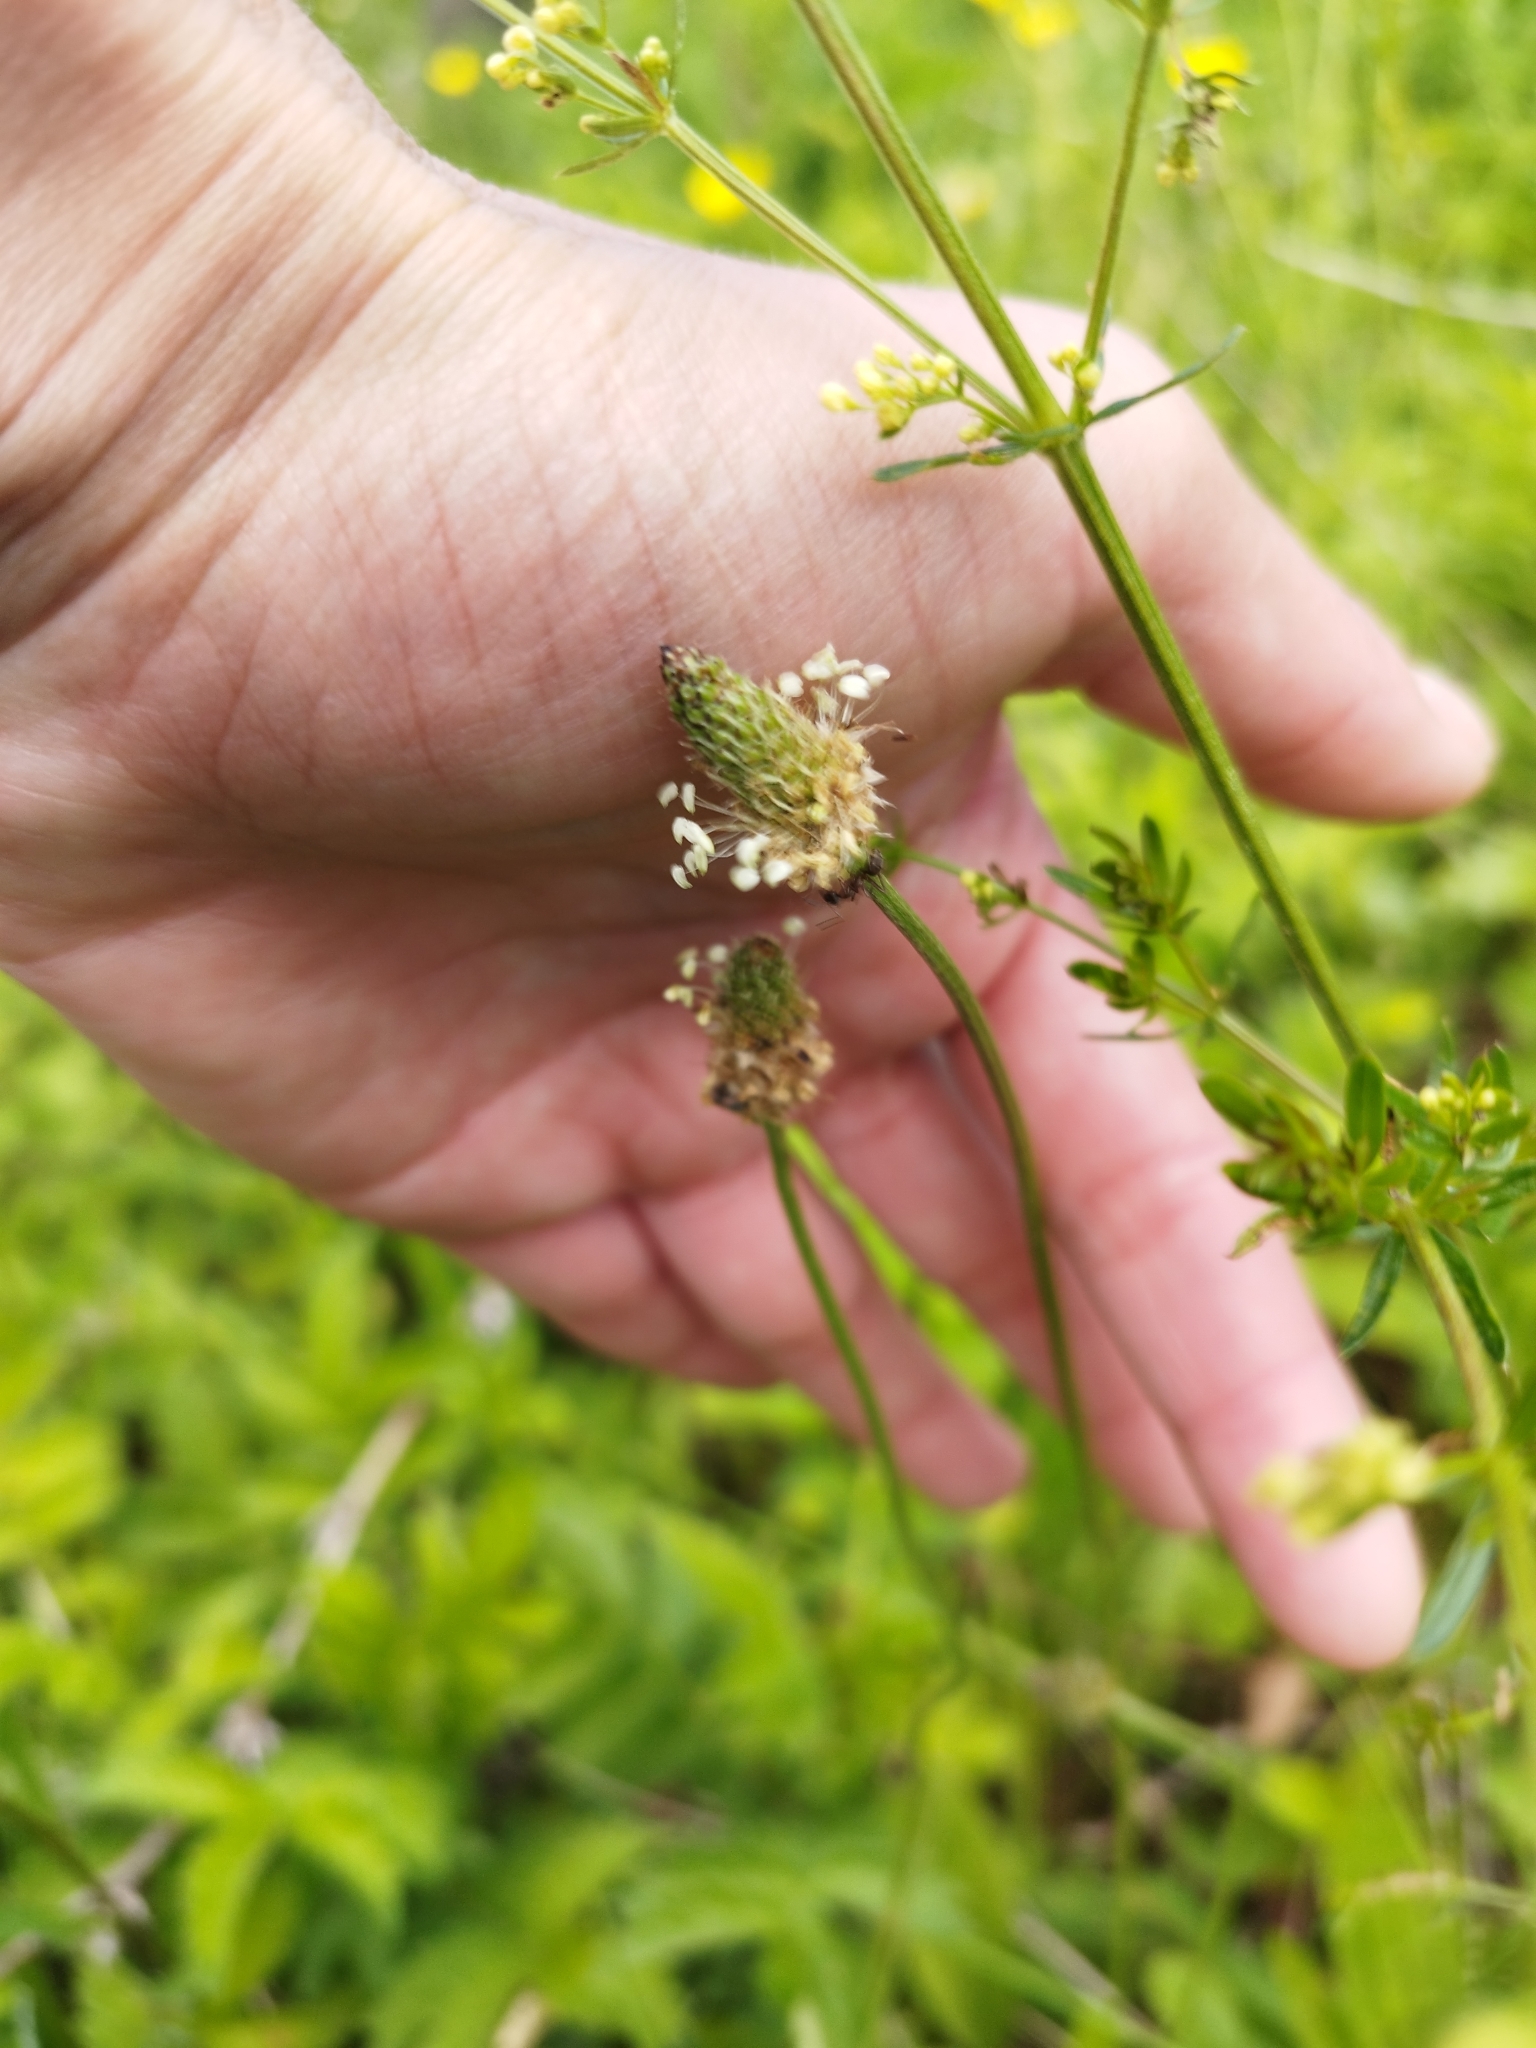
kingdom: Plantae
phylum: Tracheophyta
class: Magnoliopsida
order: Lamiales
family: Plantaginaceae
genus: Plantago
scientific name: Plantago lanceolata
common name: Ribwort plantain
